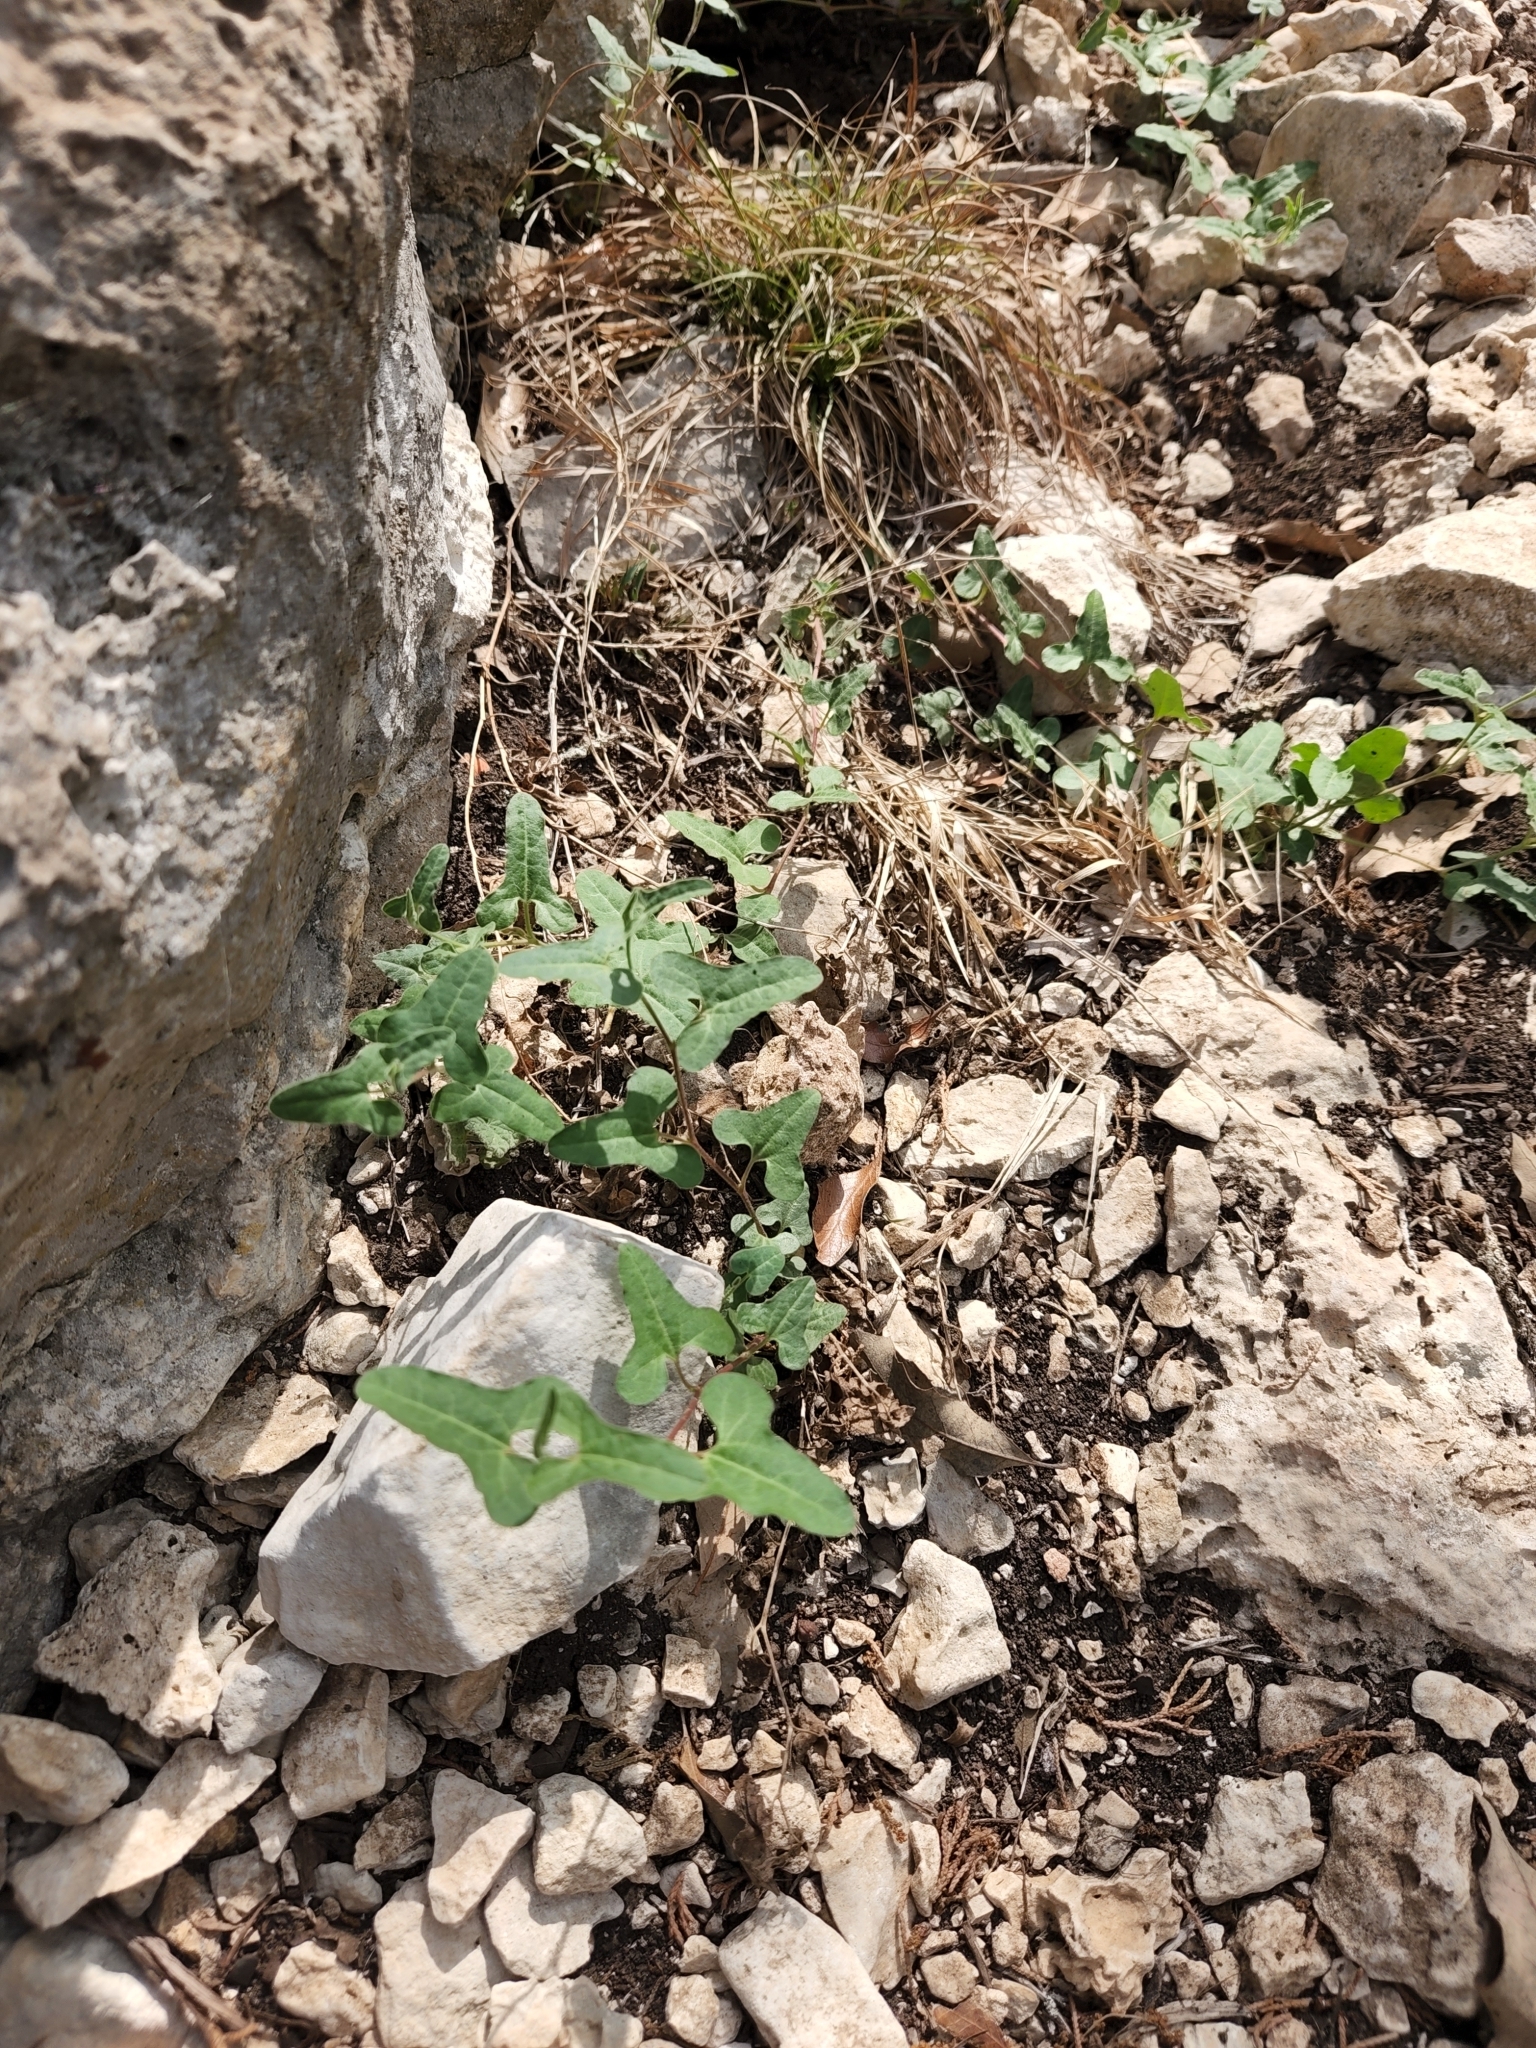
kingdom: Plantae
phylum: Tracheophyta
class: Magnoliopsida
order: Piperales
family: Aristolochiaceae
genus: Aristolochia
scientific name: Aristolochia coryi
